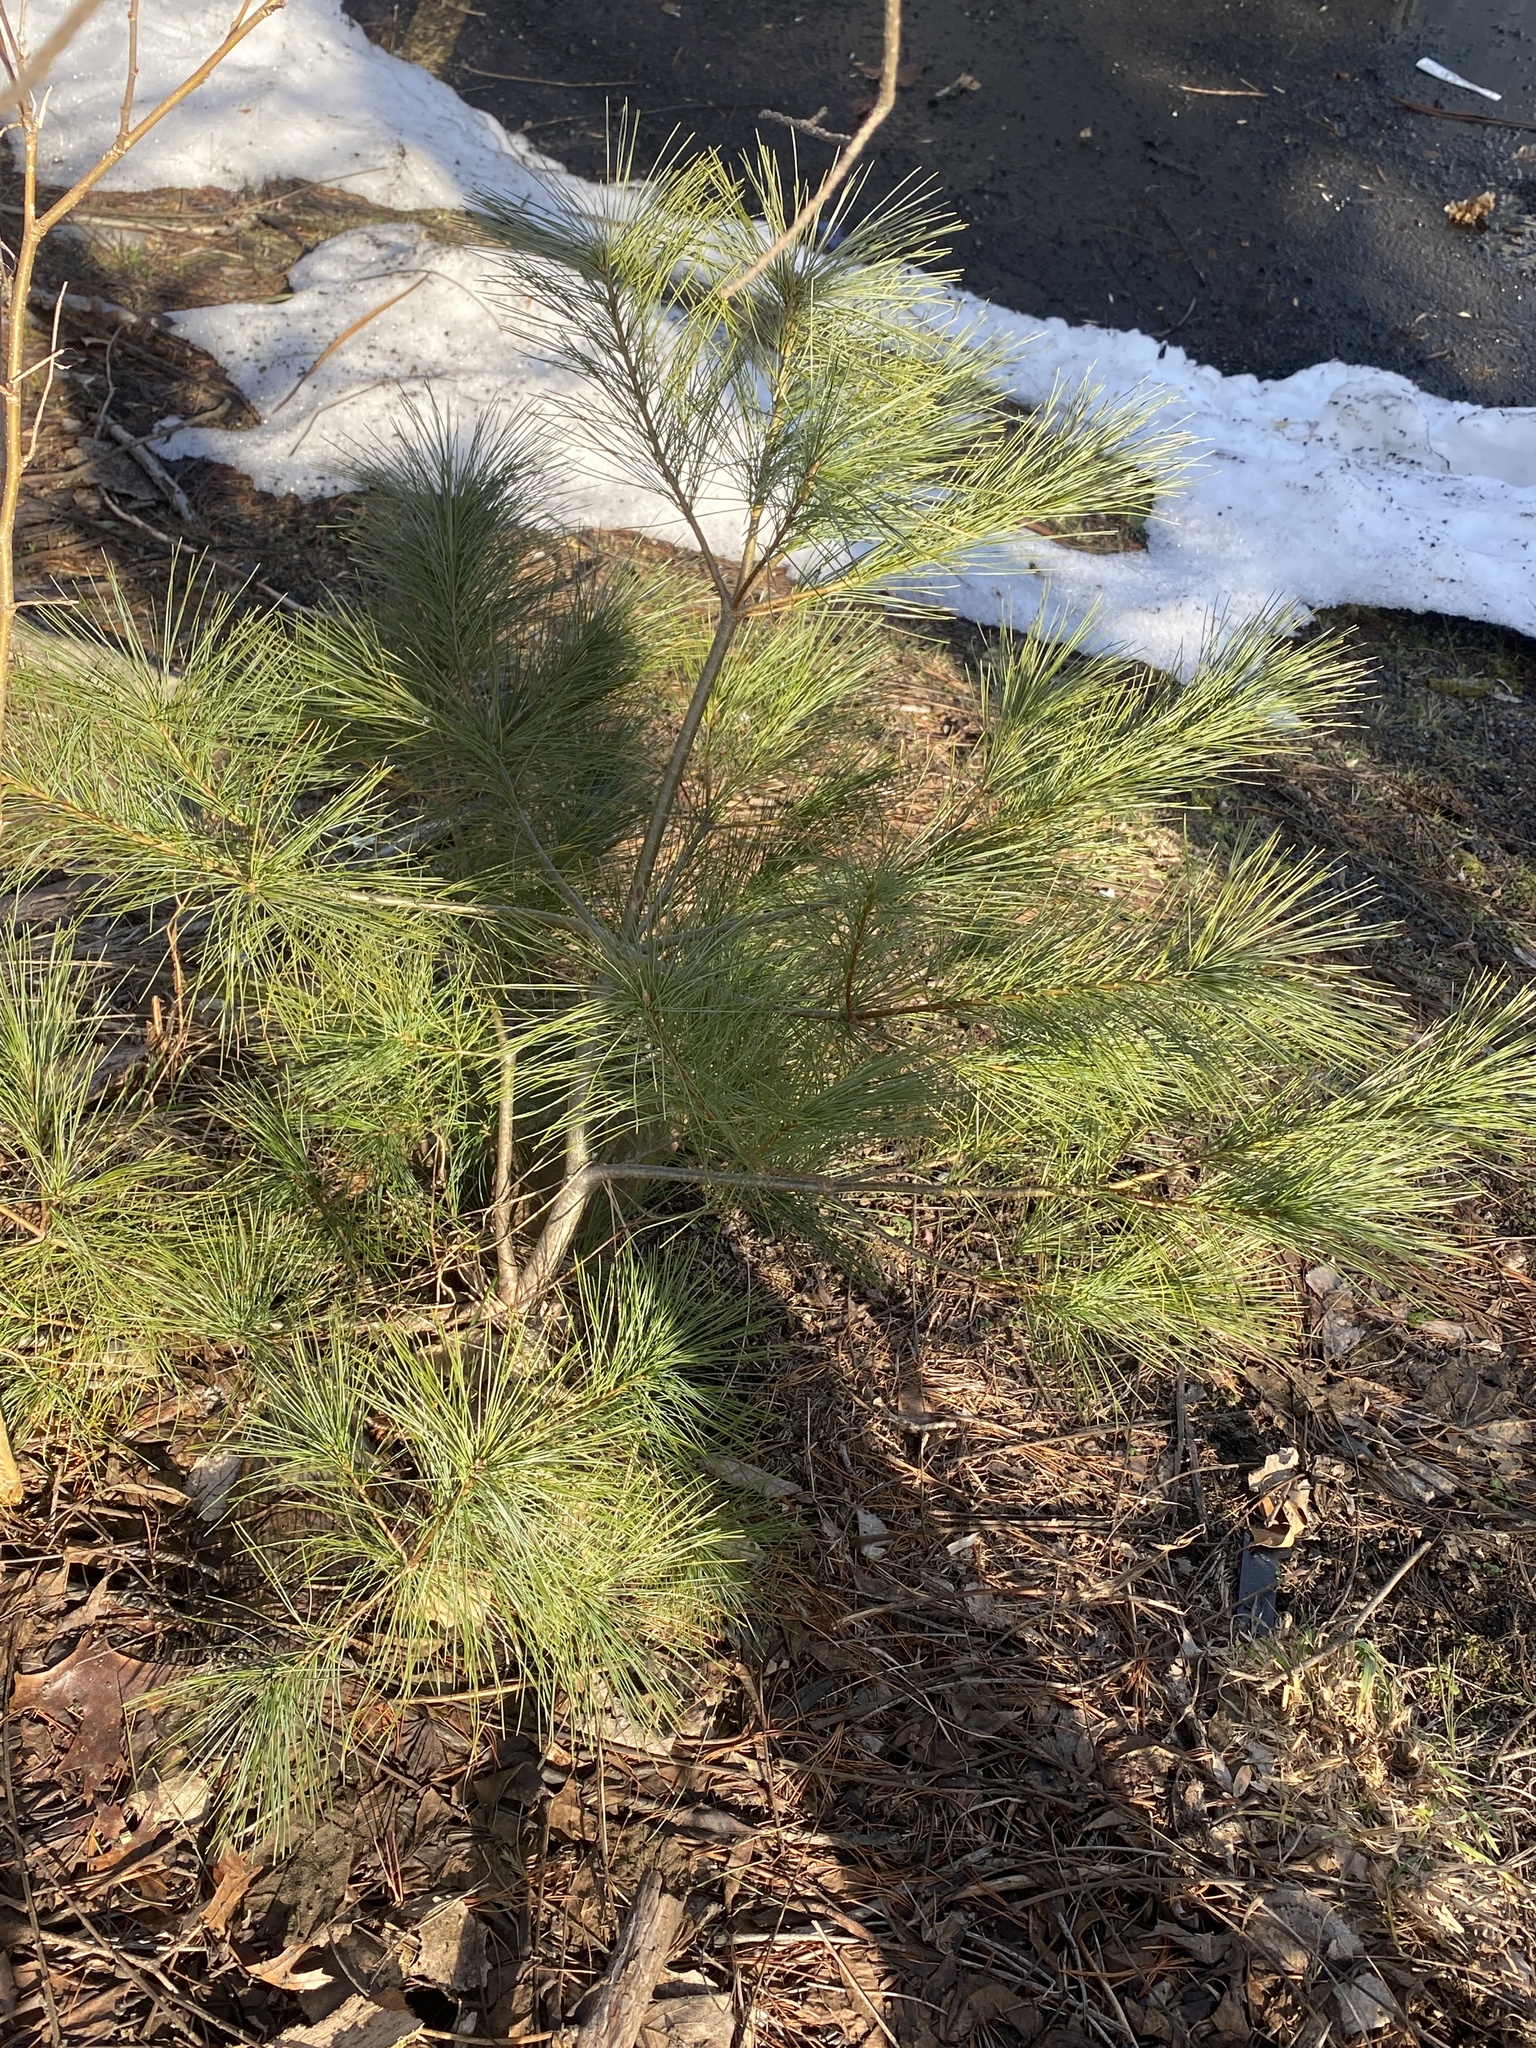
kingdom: Plantae
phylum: Tracheophyta
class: Pinopsida
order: Pinales
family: Pinaceae
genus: Pinus
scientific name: Pinus strobus
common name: Weymouth pine
